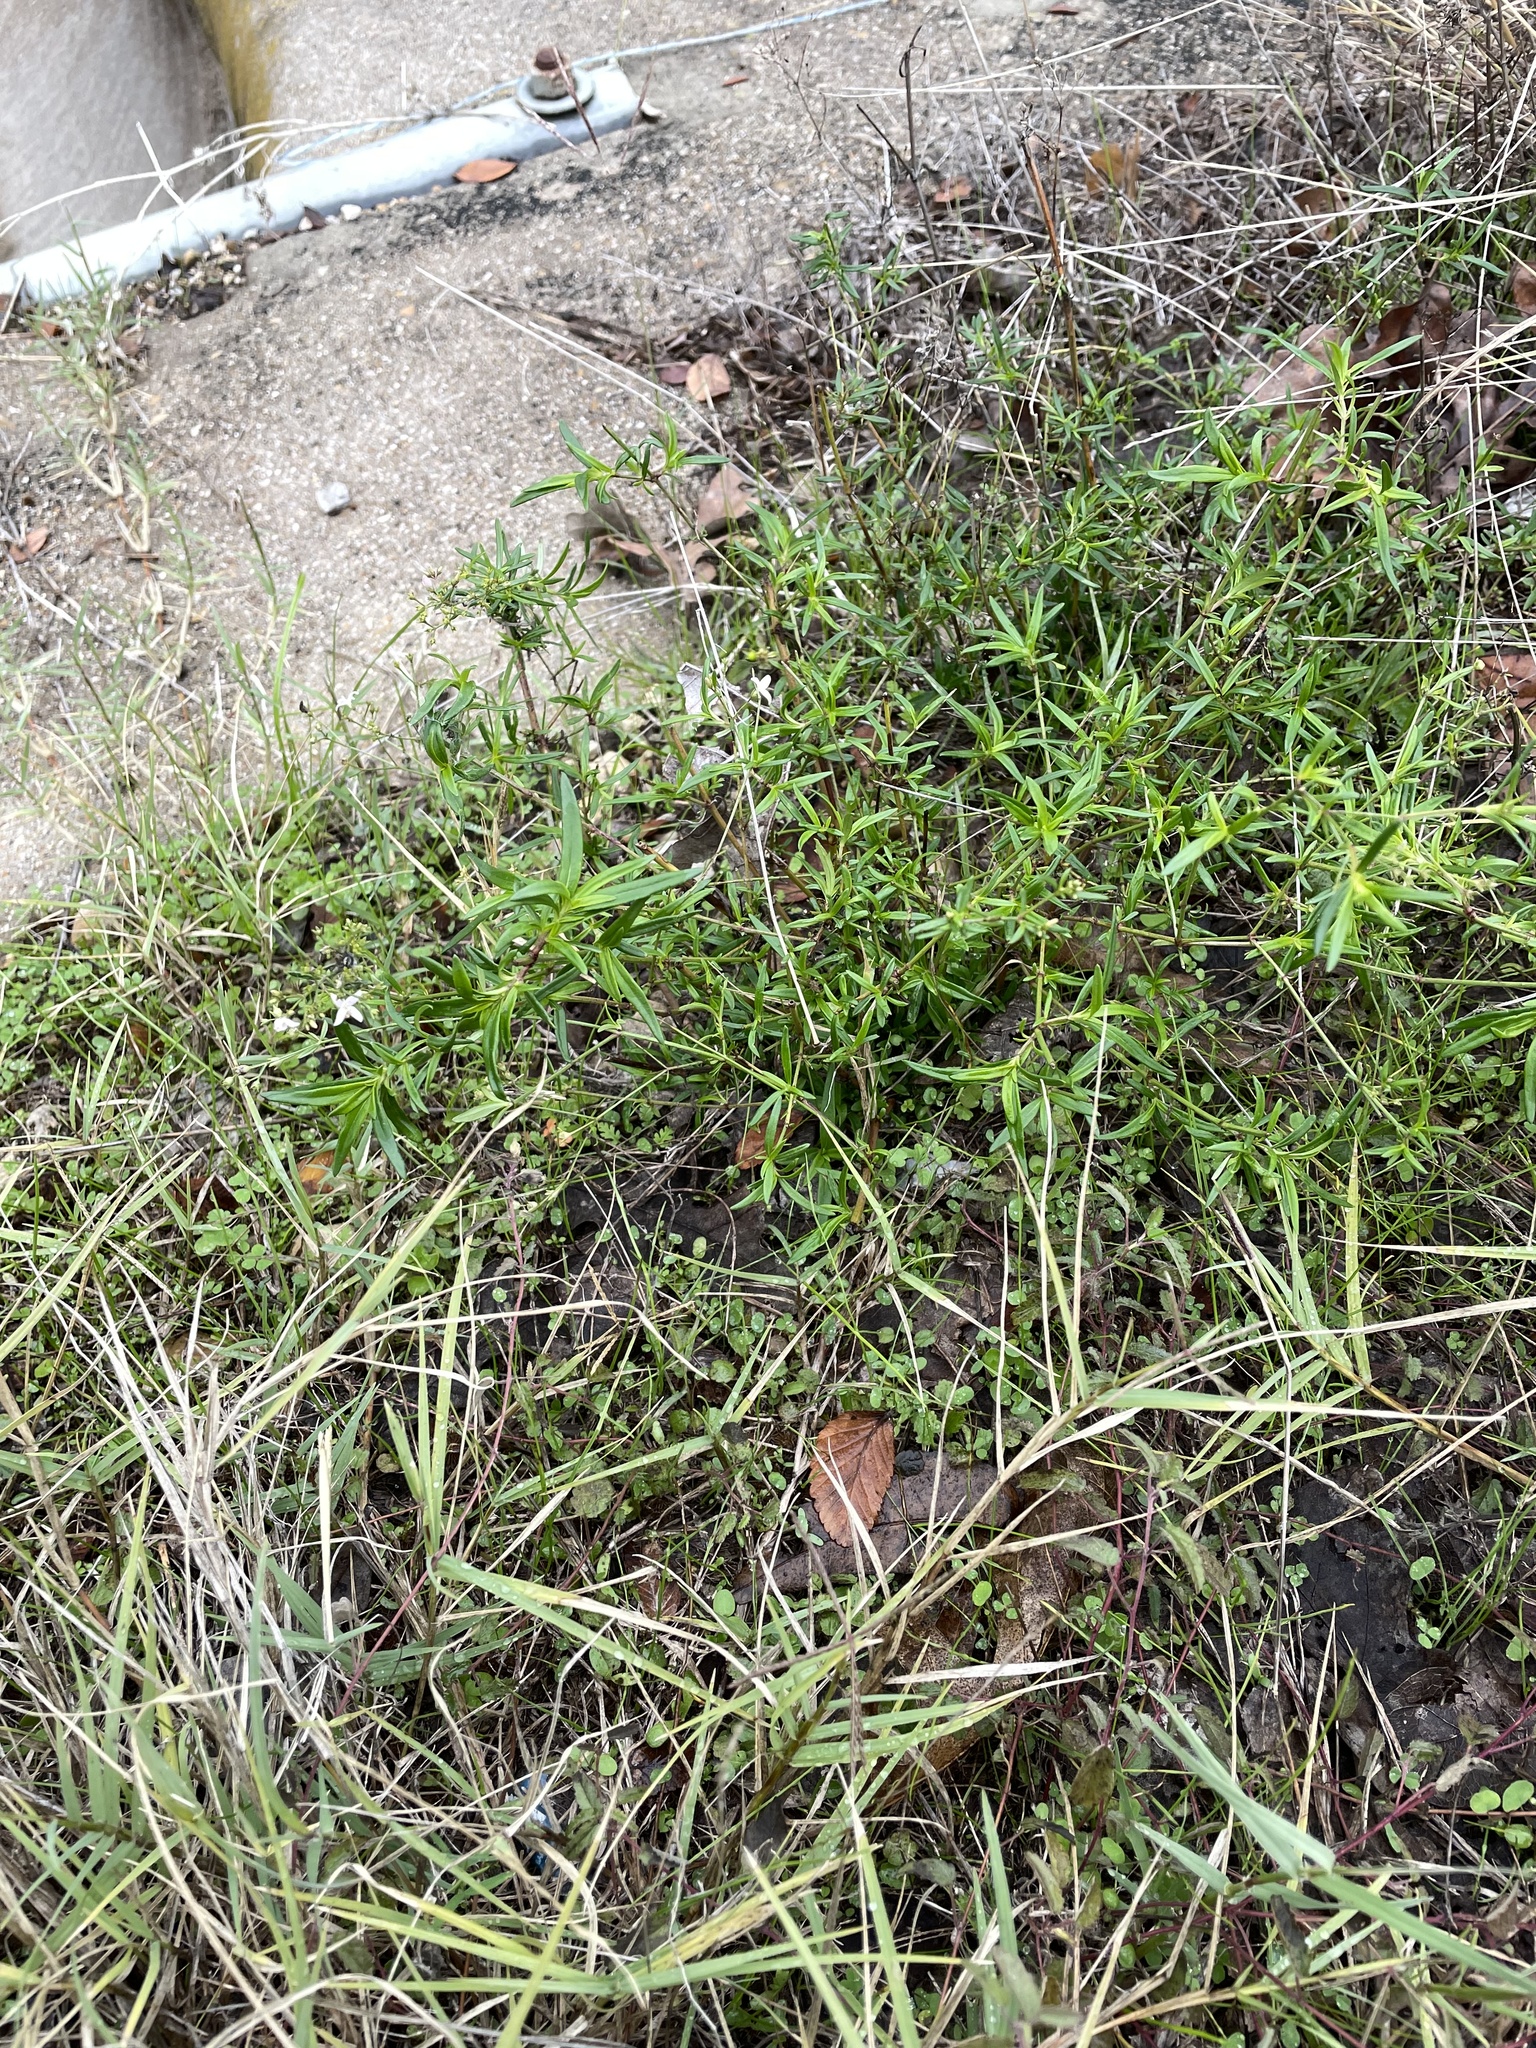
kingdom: Plantae
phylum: Tracheophyta
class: Magnoliopsida
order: Gentianales
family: Rubiaceae
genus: Stenaria
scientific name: Stenaria nigricans
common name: Diamondflowers
